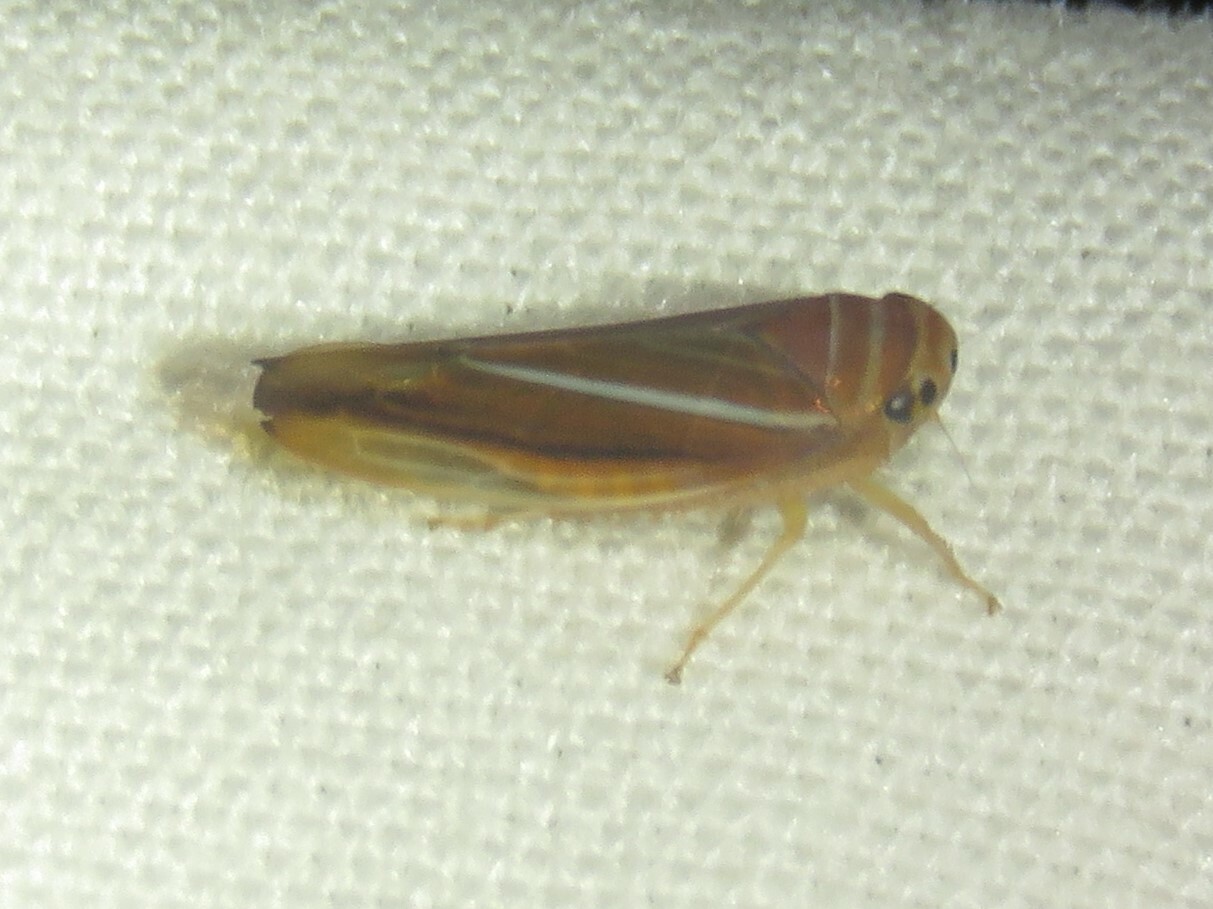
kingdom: Animalia
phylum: Arthropoda
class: Insecta
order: Hemiptera
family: Cicadellidae
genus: Idiodonus
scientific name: Idiodonus kennicotti
